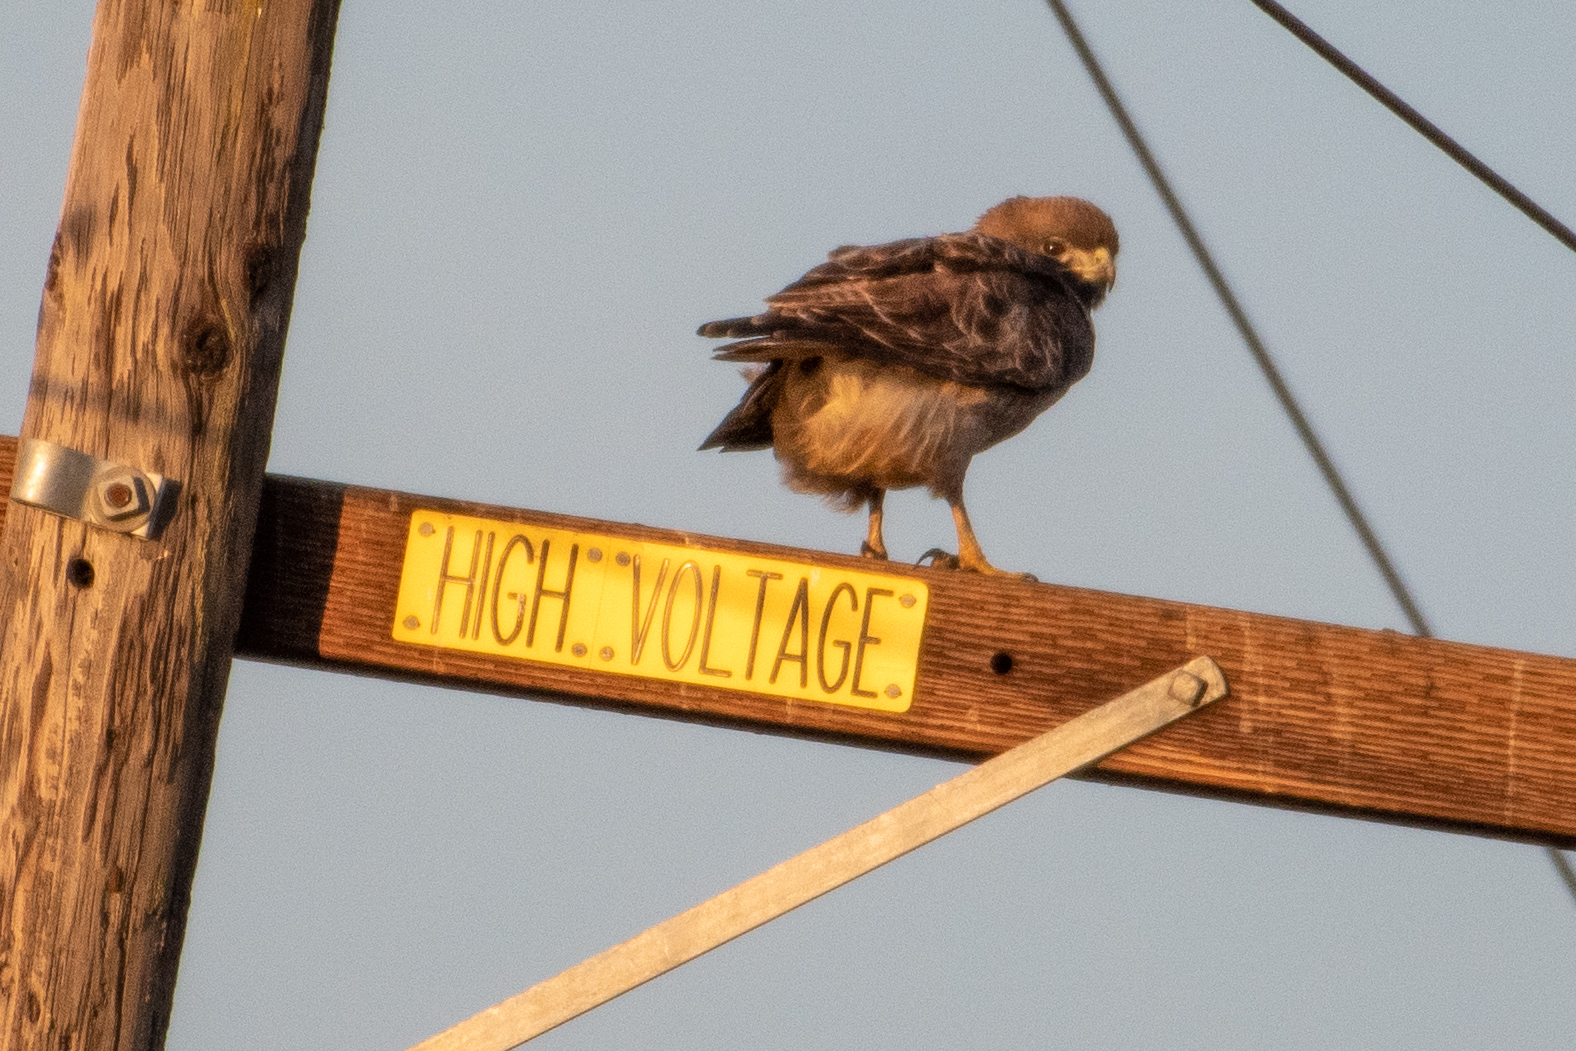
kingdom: Animalia
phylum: Chordata
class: Aves
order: Accipitriformes
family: Accipitridae
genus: Buteo
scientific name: Buteo jamaicensis
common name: Red-tailed hawk
